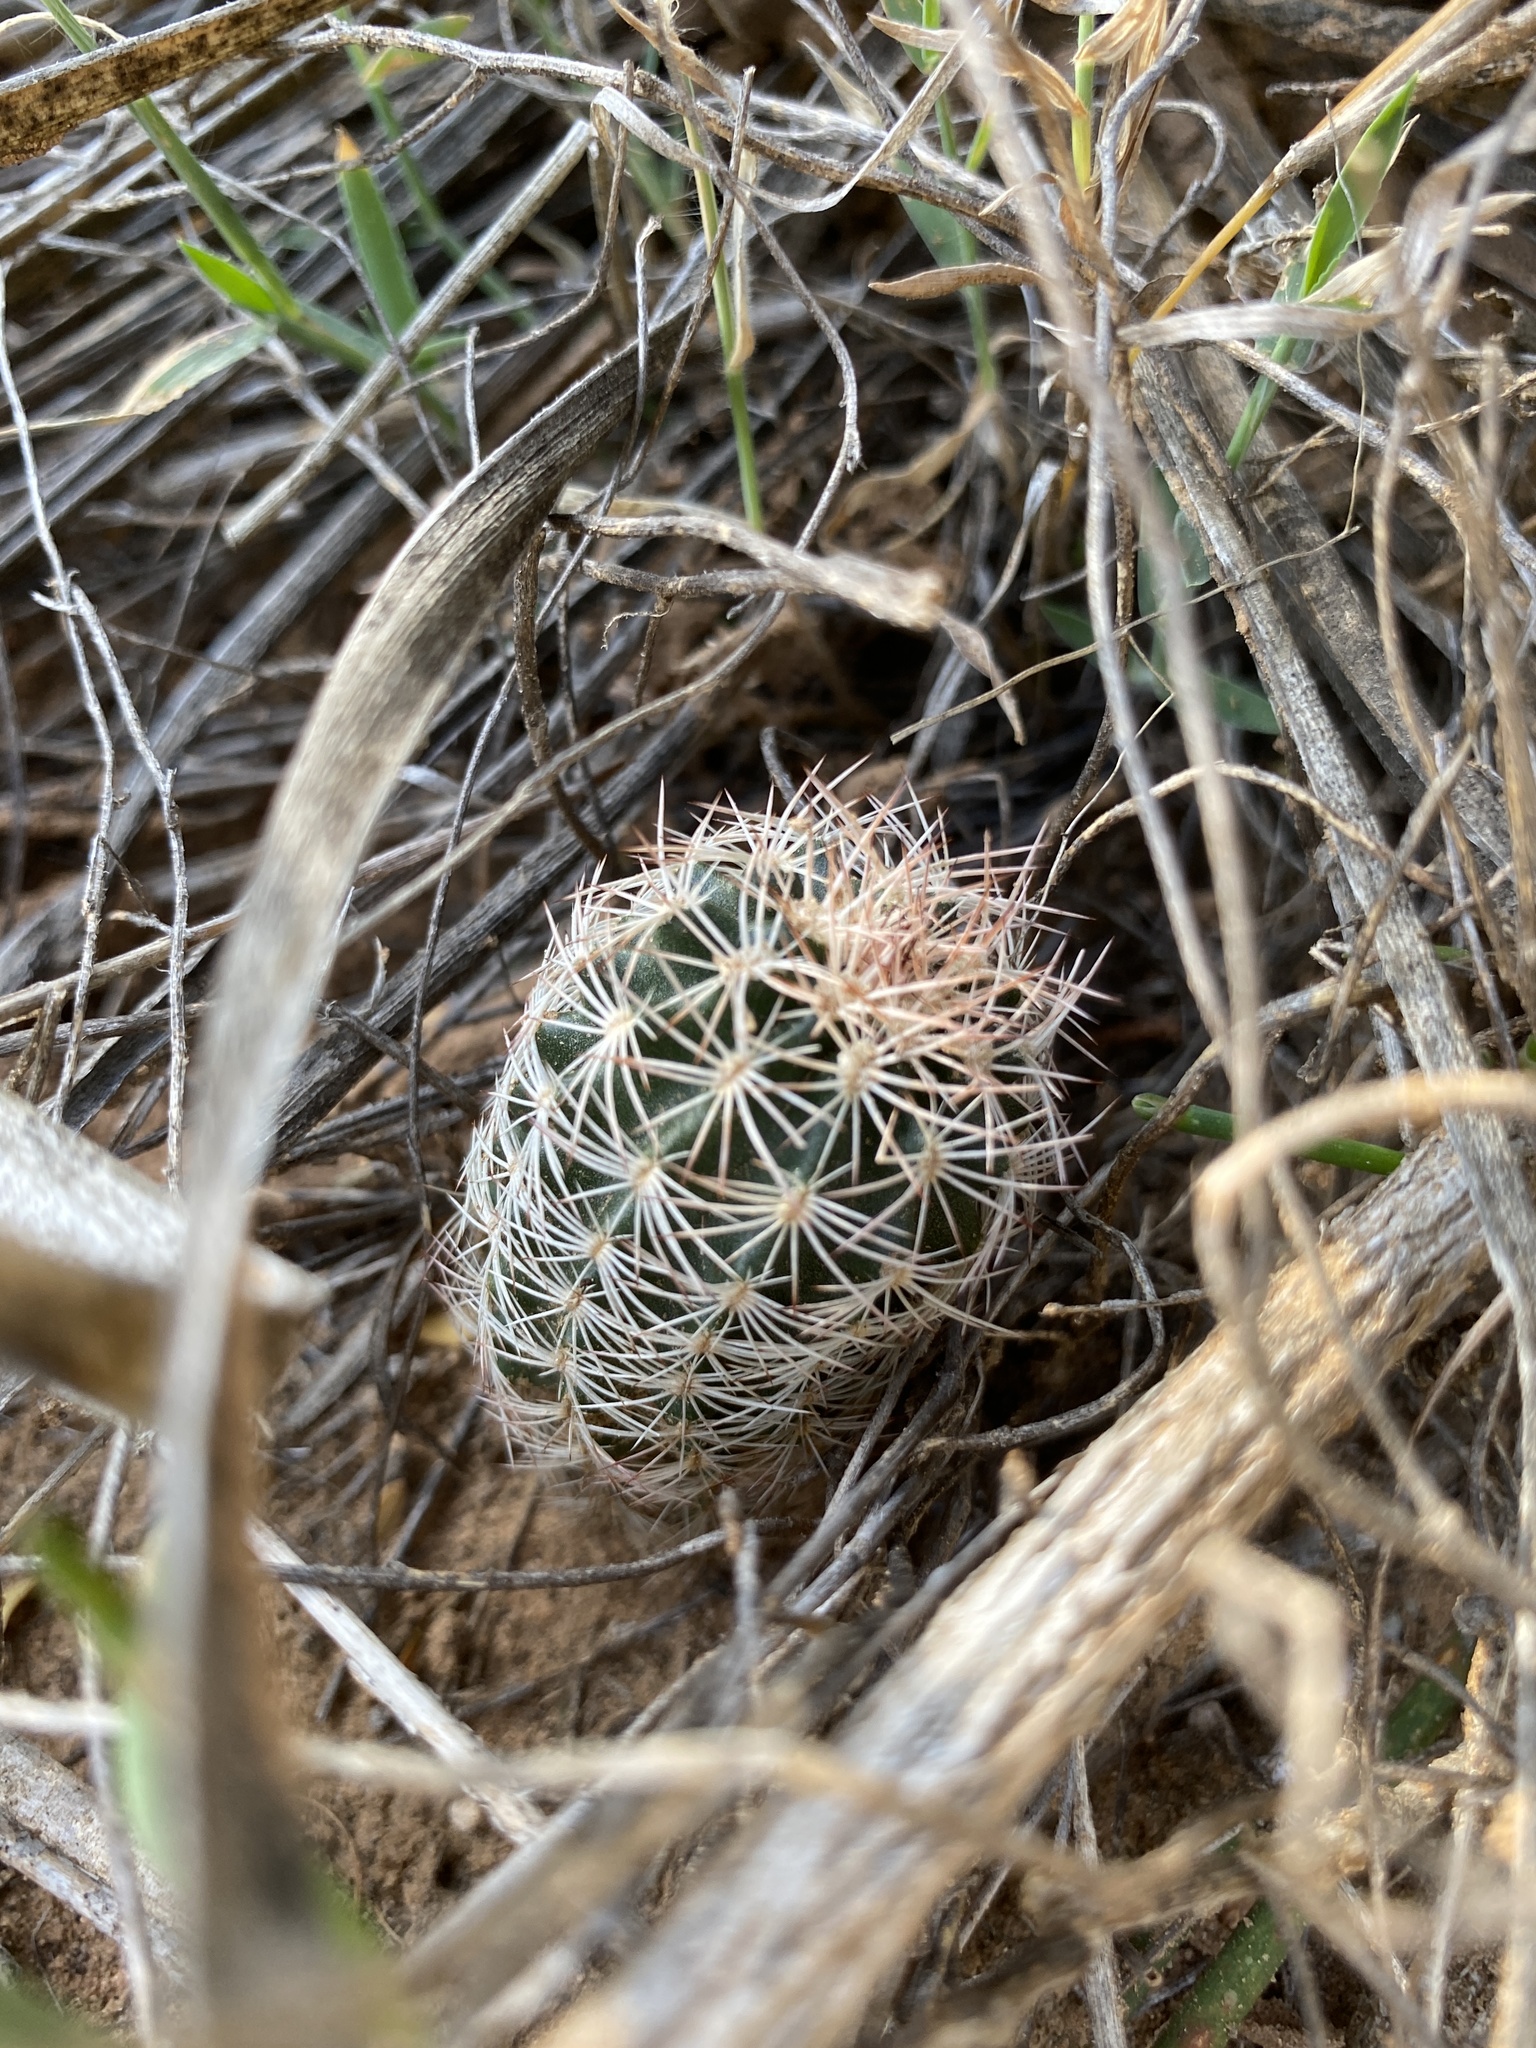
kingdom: Plantae
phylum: Tracheophyta
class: Magnoliopsida
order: Caryophyllales
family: Cactaceae
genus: Echinocereus
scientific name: Echinocereus reichenbachii
